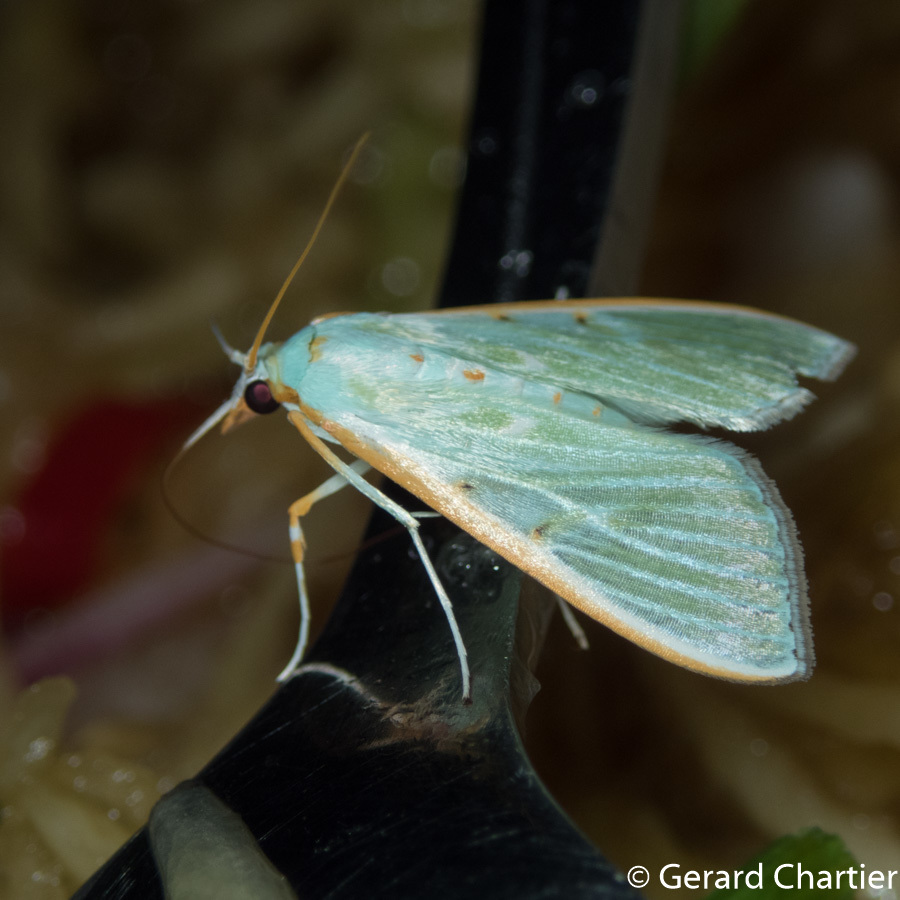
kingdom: Animalia
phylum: Arthropoda
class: Insecta
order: Lepidoptera
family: Crambidae
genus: Arthroschista
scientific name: Arthroschista hilaralis
